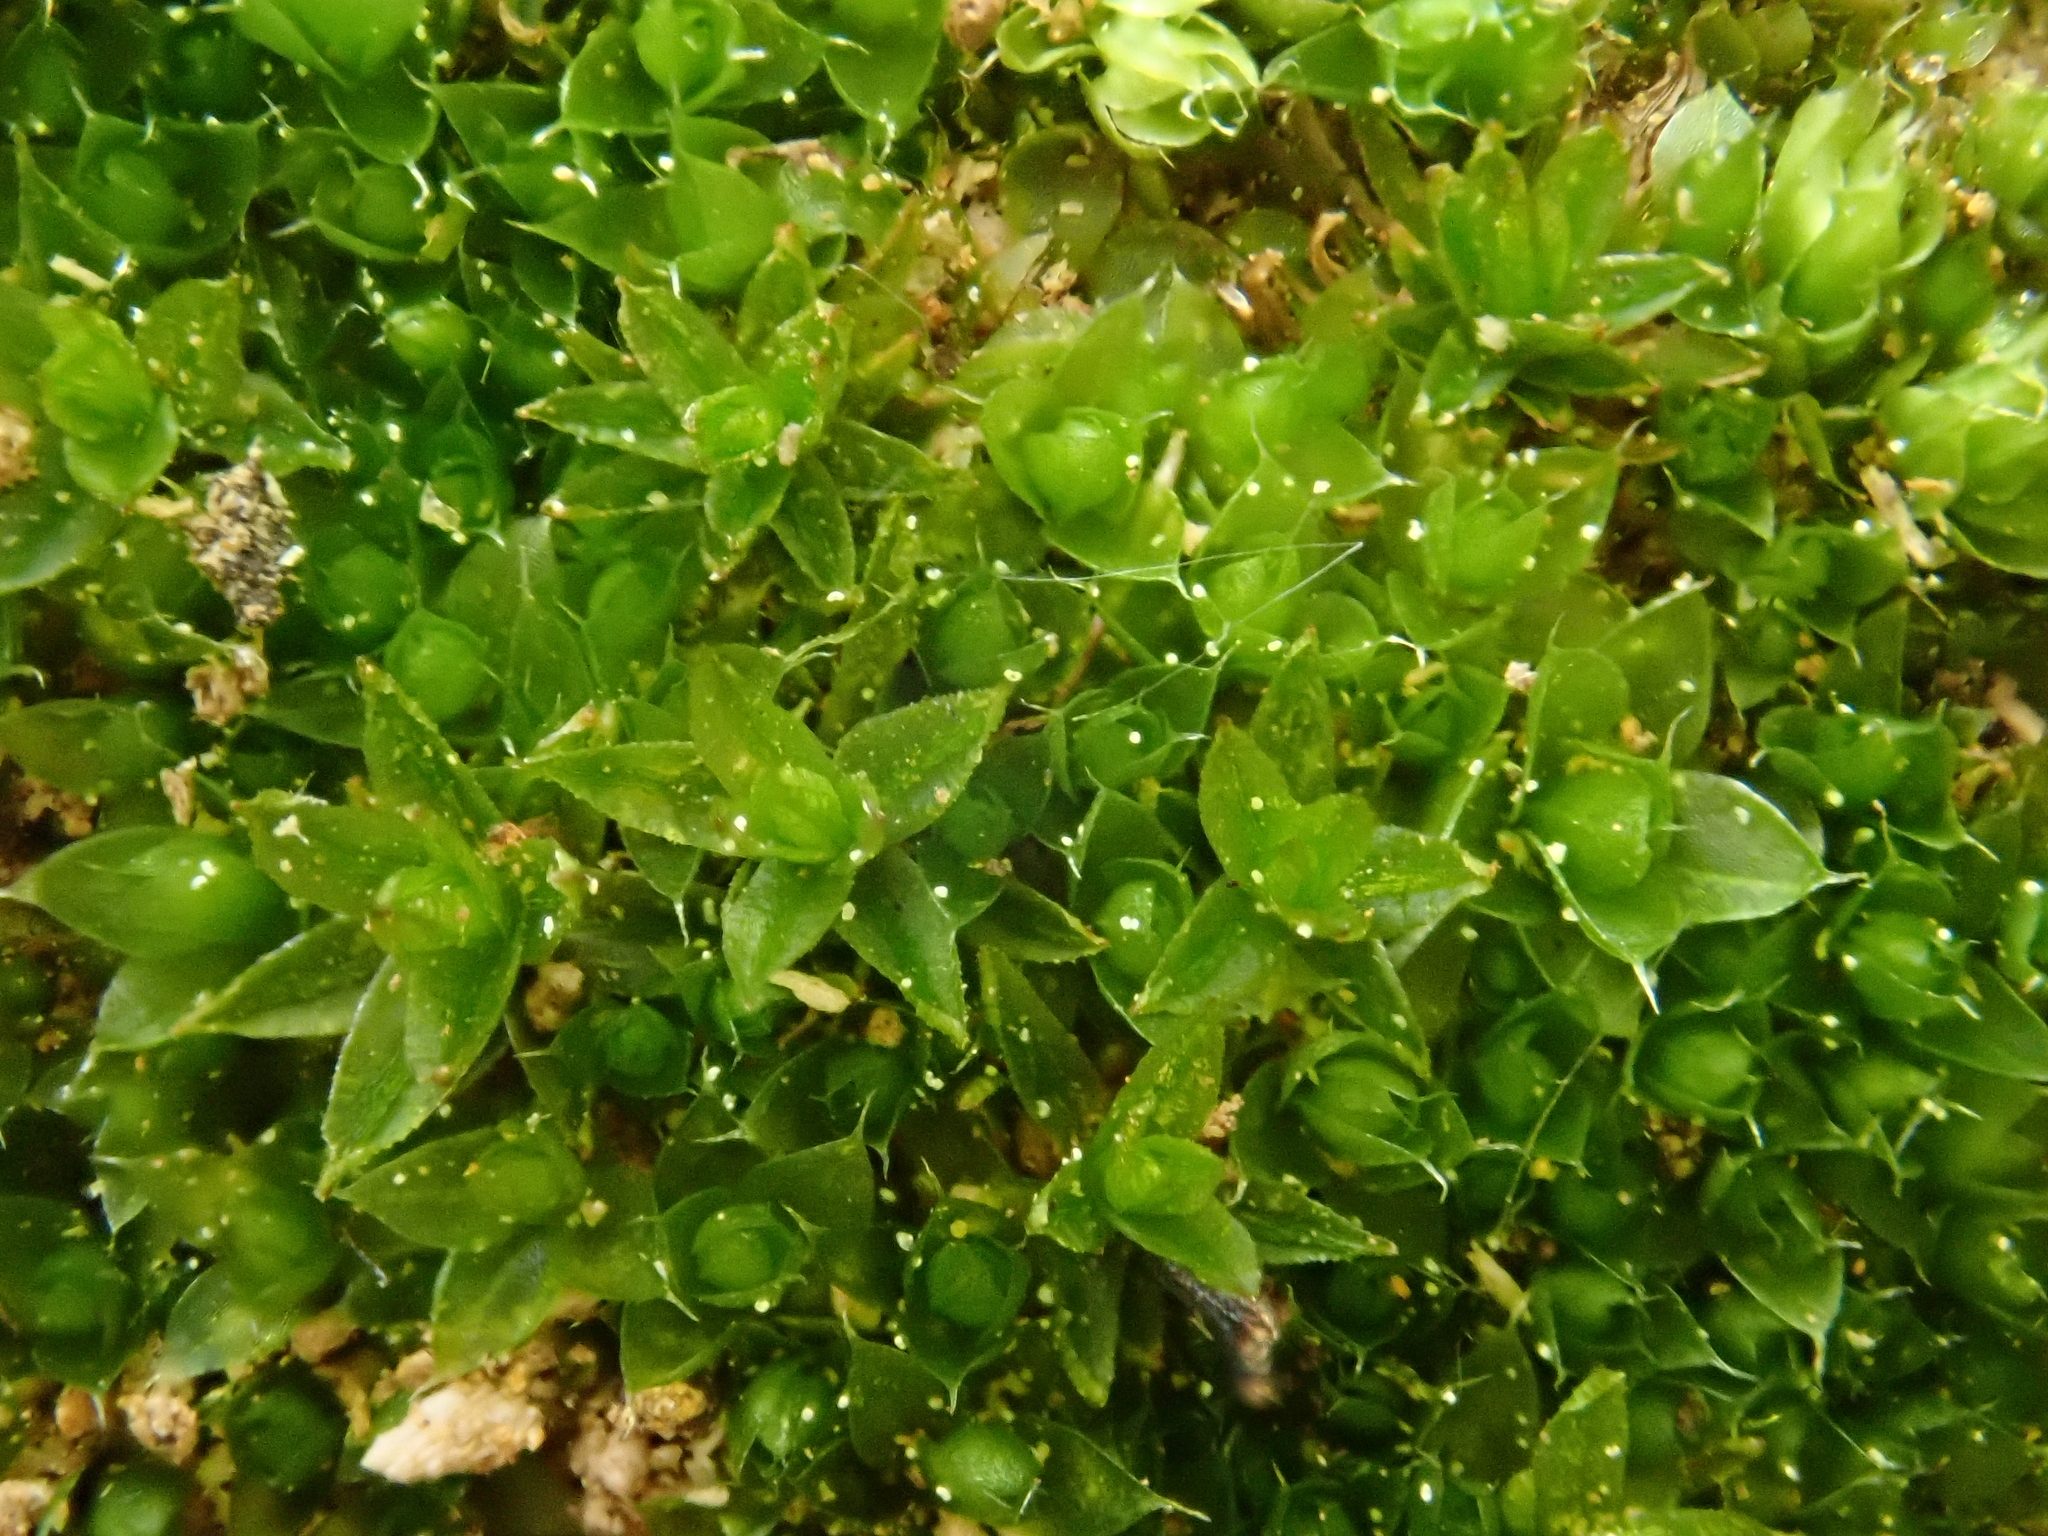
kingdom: Plantae
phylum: Bryophyta
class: Bryopsida
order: Bryales
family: Bryaceae
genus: Rosulabryum
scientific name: Rosulabryum capillare
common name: Capillary thread-moss
